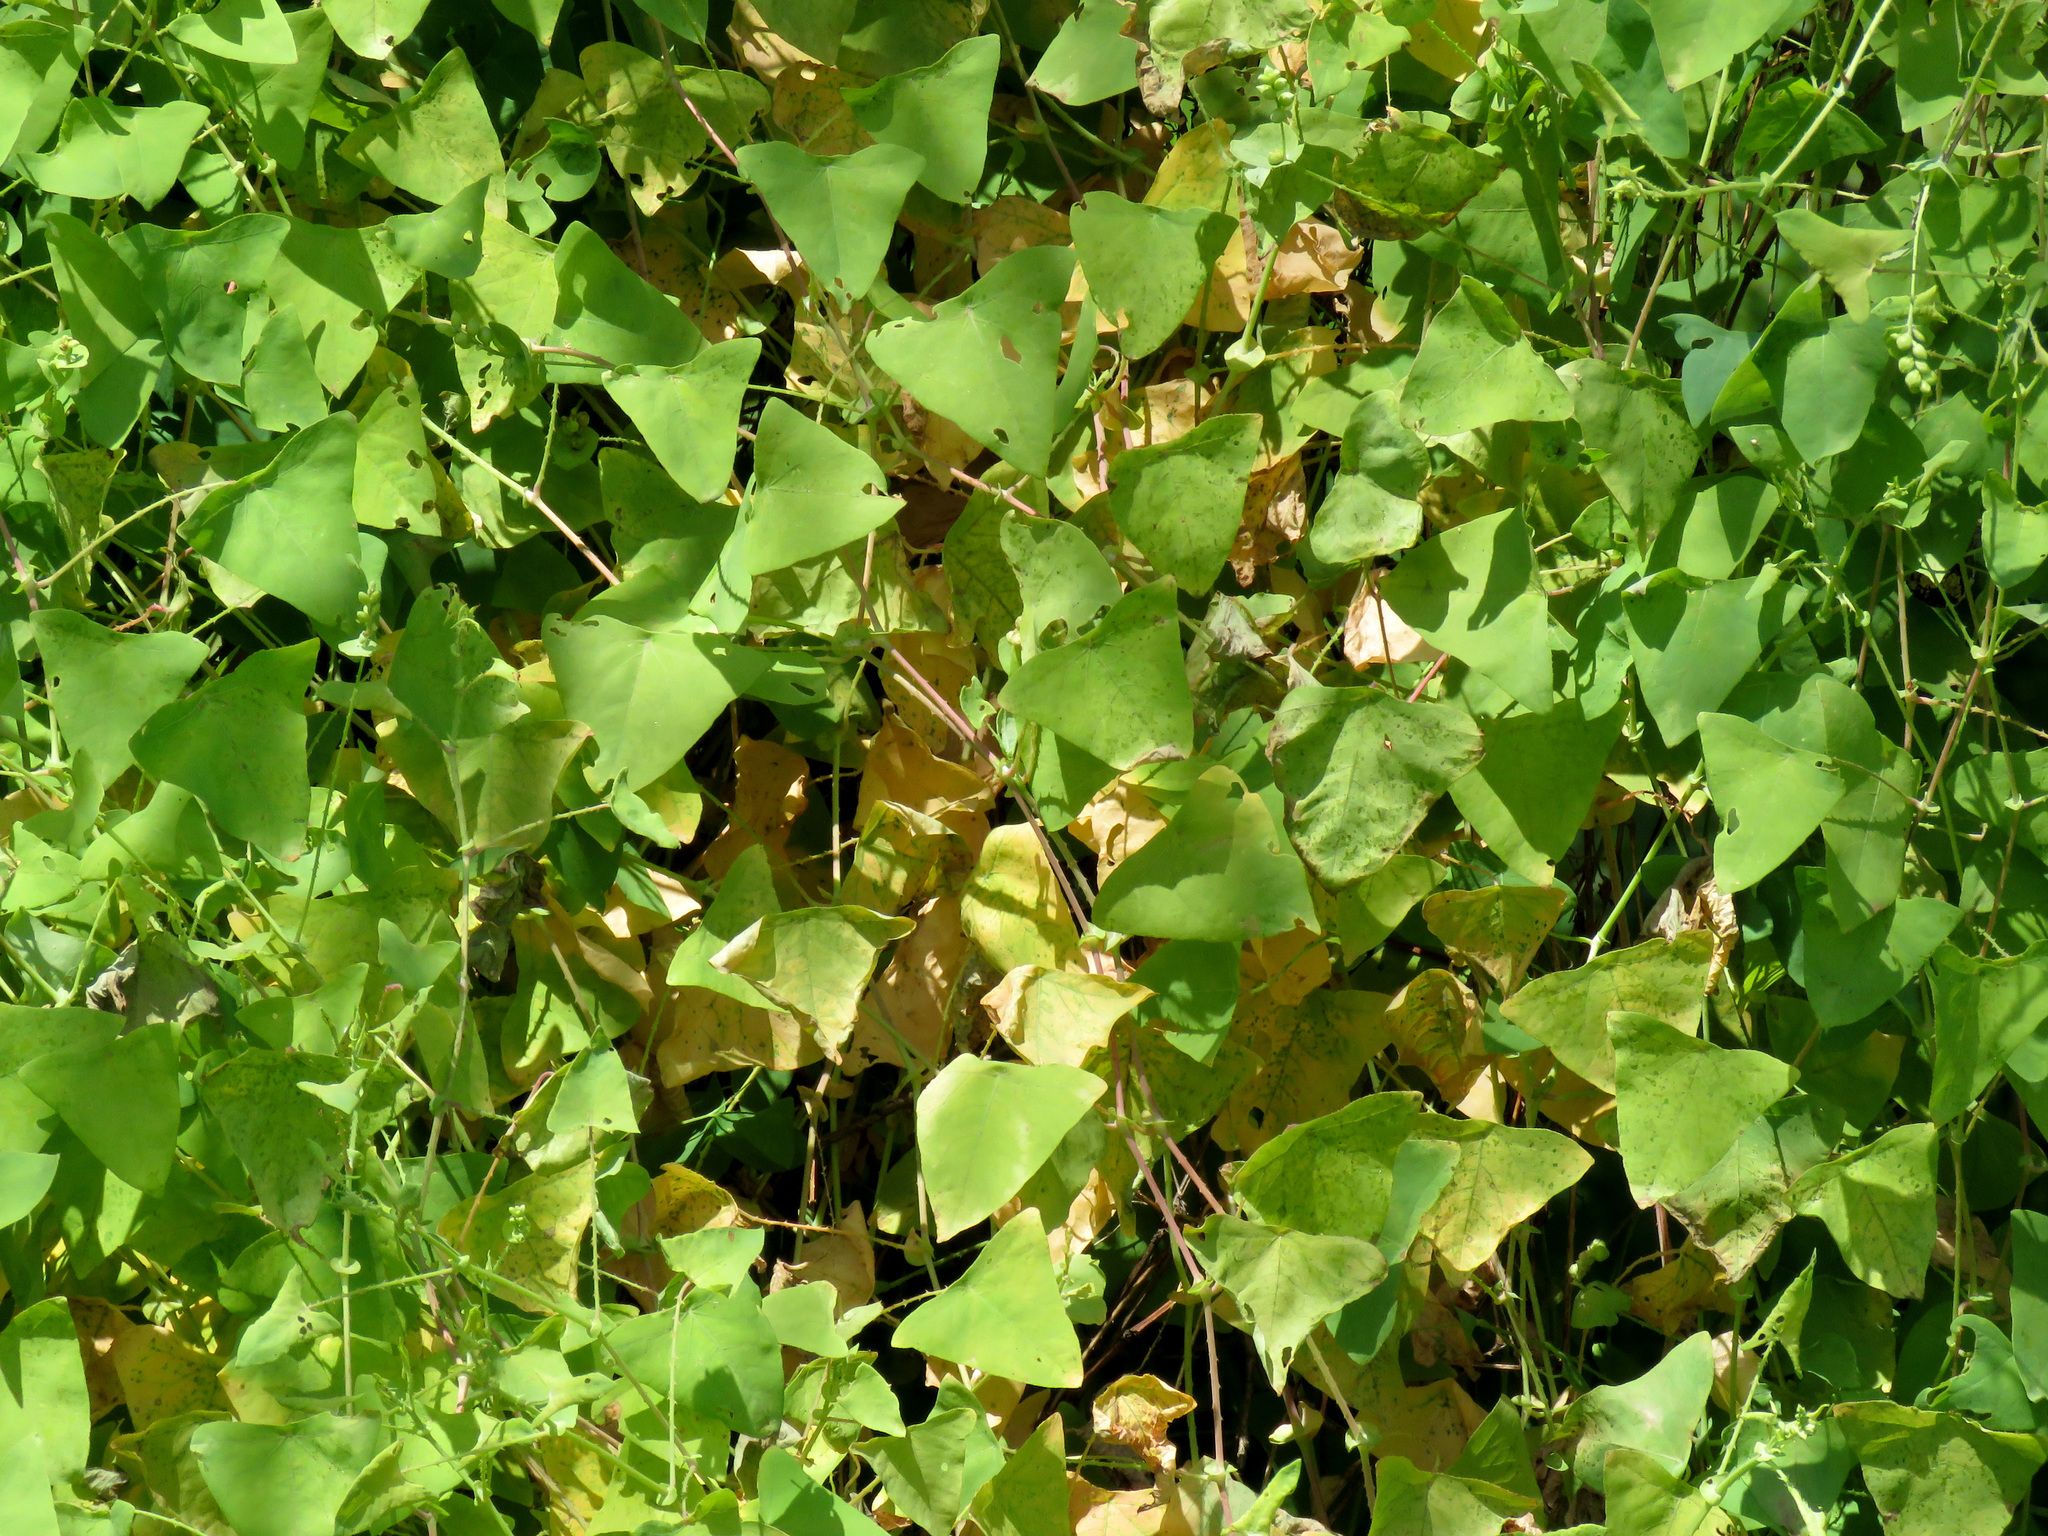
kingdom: Plantae
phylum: Tracheophyta
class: Magnoliopsida
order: Caryophyllales
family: Polygonaceae
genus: Persicaria
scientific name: Persicaria perfoliata
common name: Asiatic tearthumb
